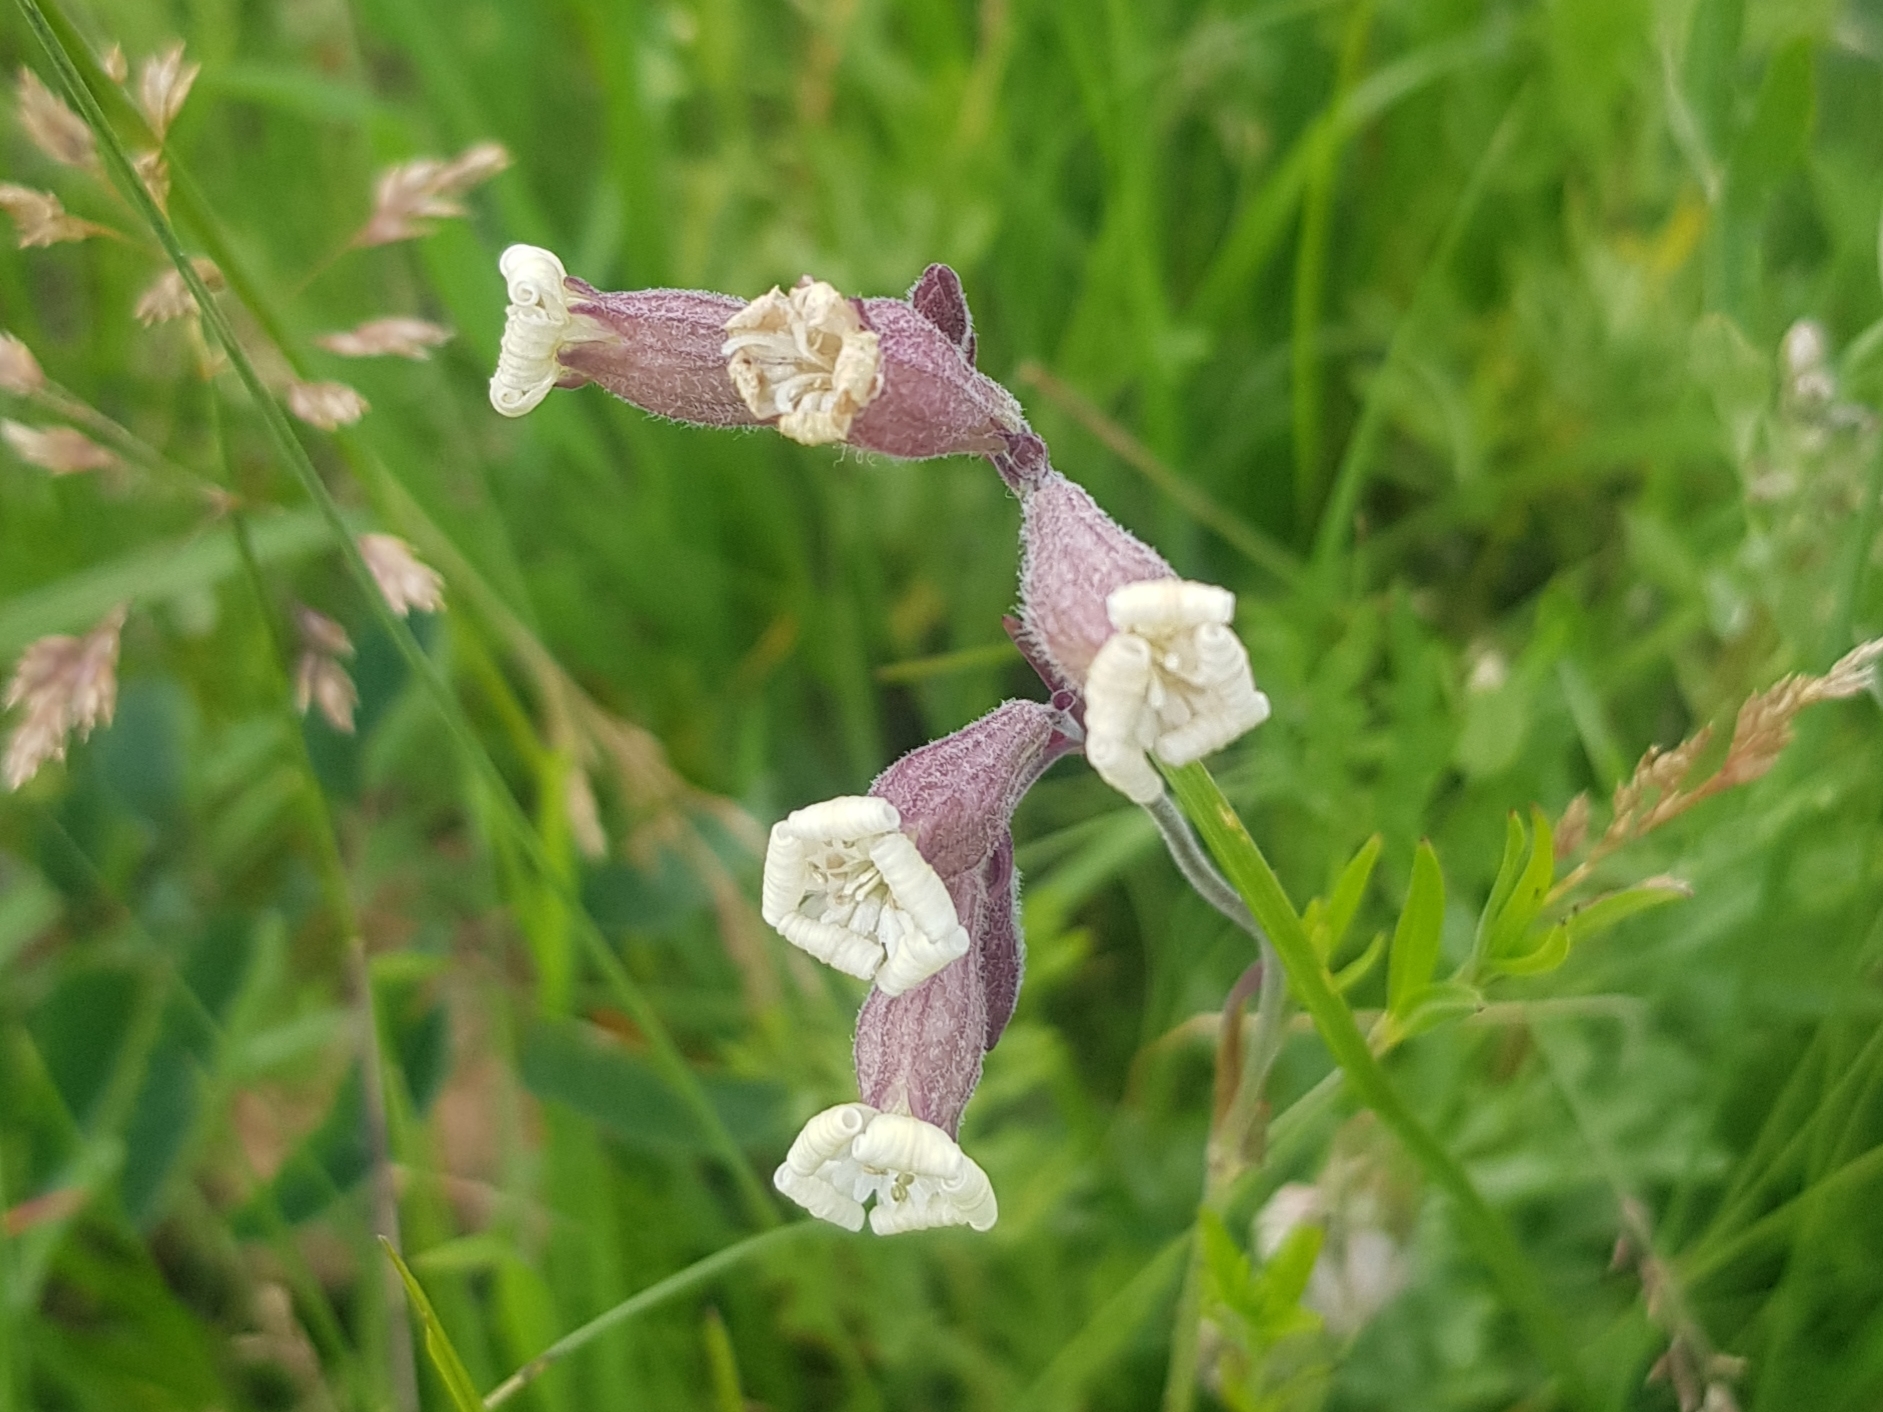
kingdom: Plantae
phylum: Tracheophyta
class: Magnoliopsida
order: Caryophyllales
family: Caryophyllaceae
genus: Silene
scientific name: Silene amoena
